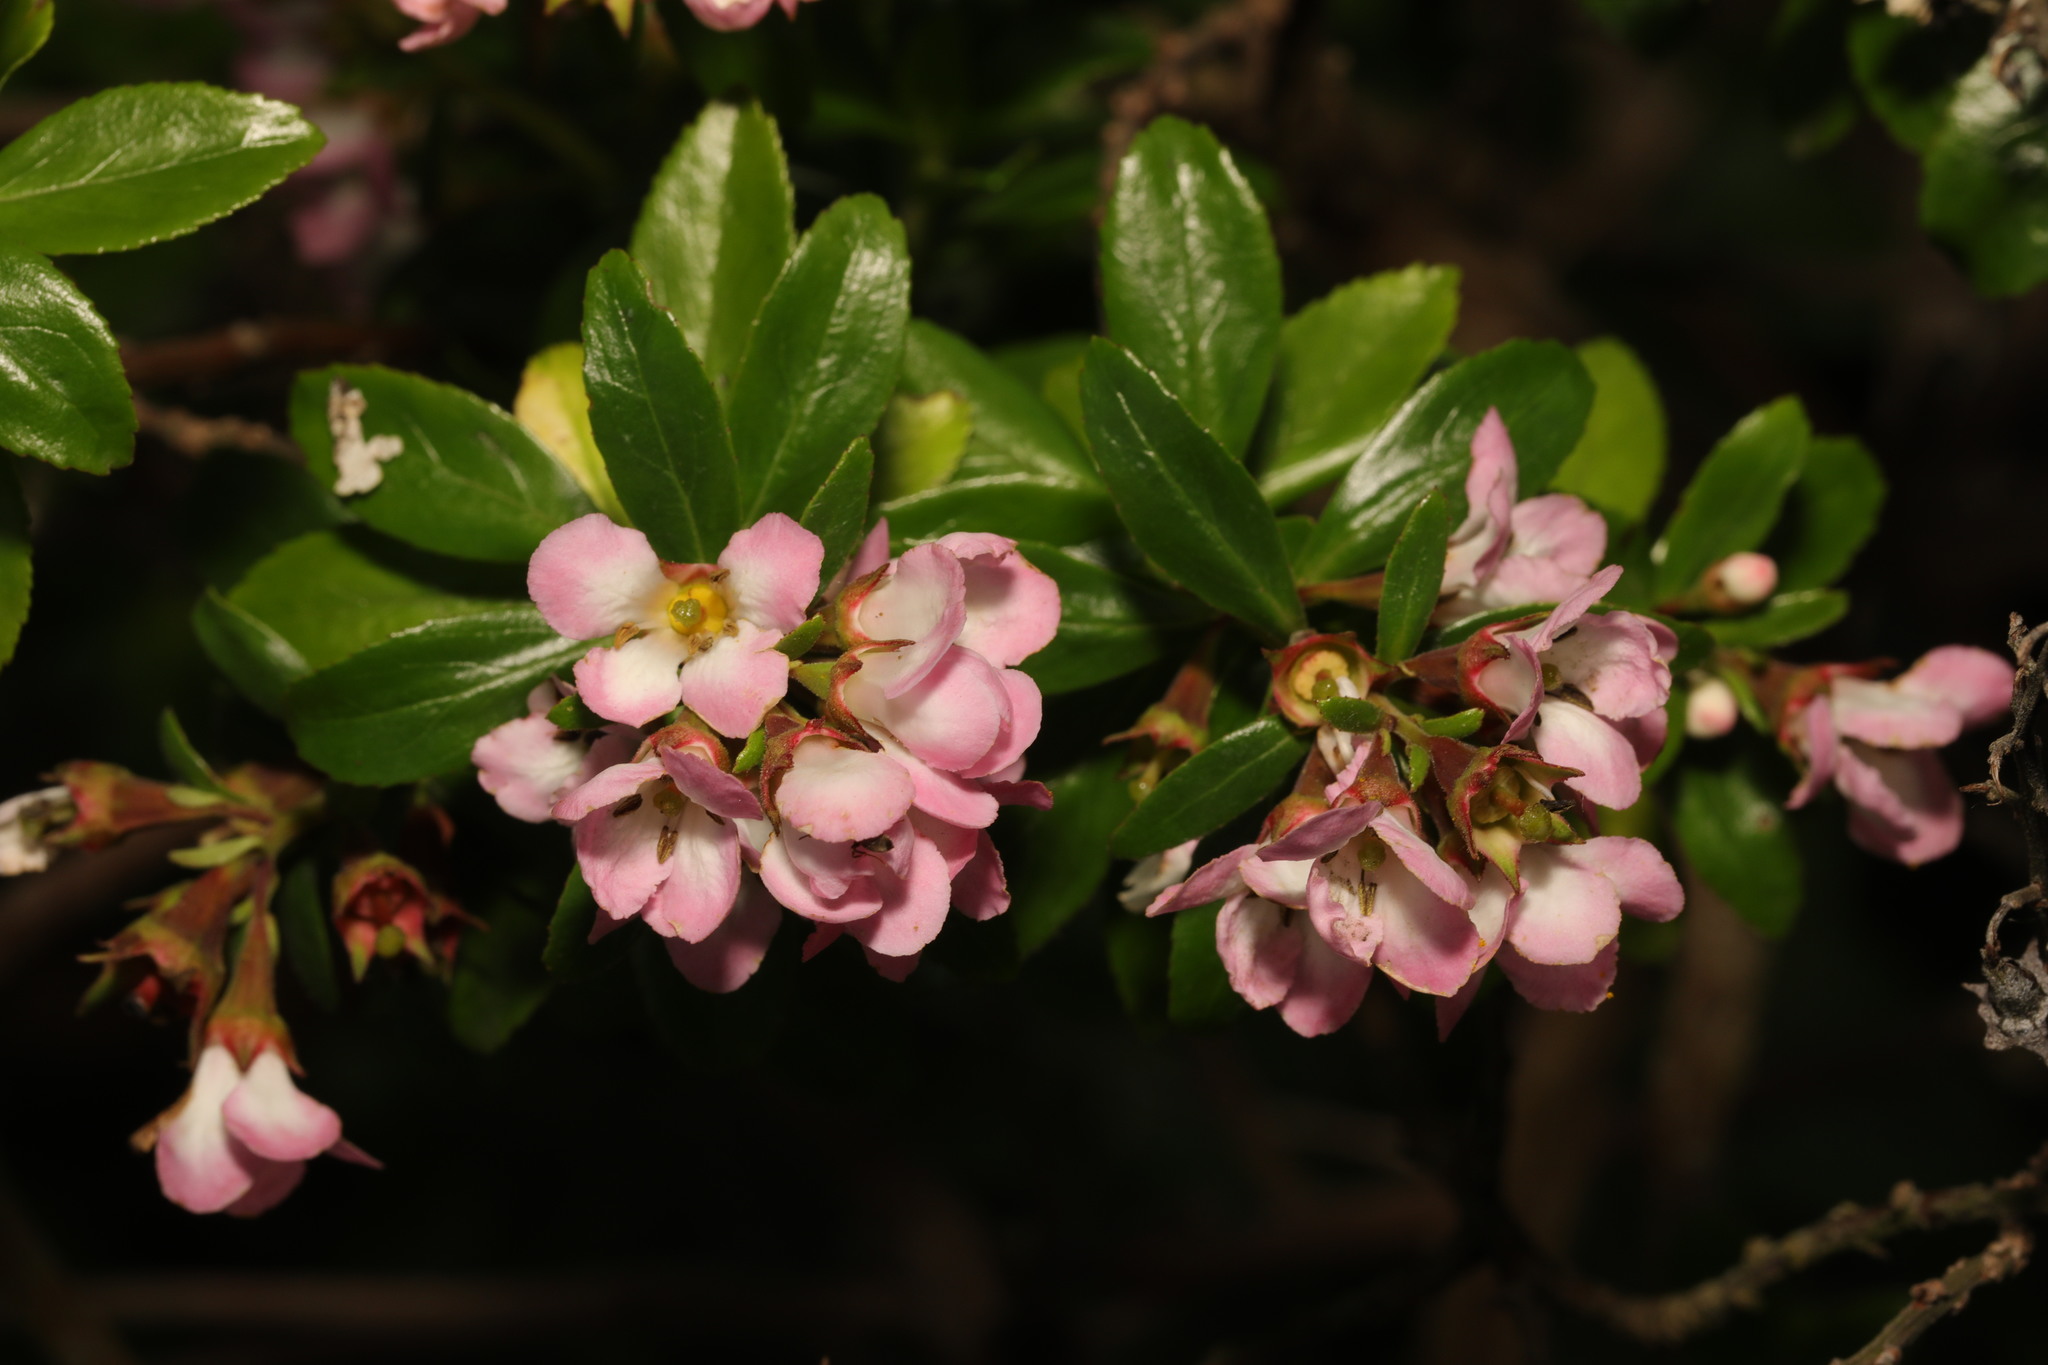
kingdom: Plantae
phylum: Tracheophyta
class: Magnoliopsida
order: Escalloniales
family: Escalloniaceae
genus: Escallonia
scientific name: Escallonia rubra
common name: Redclaws
